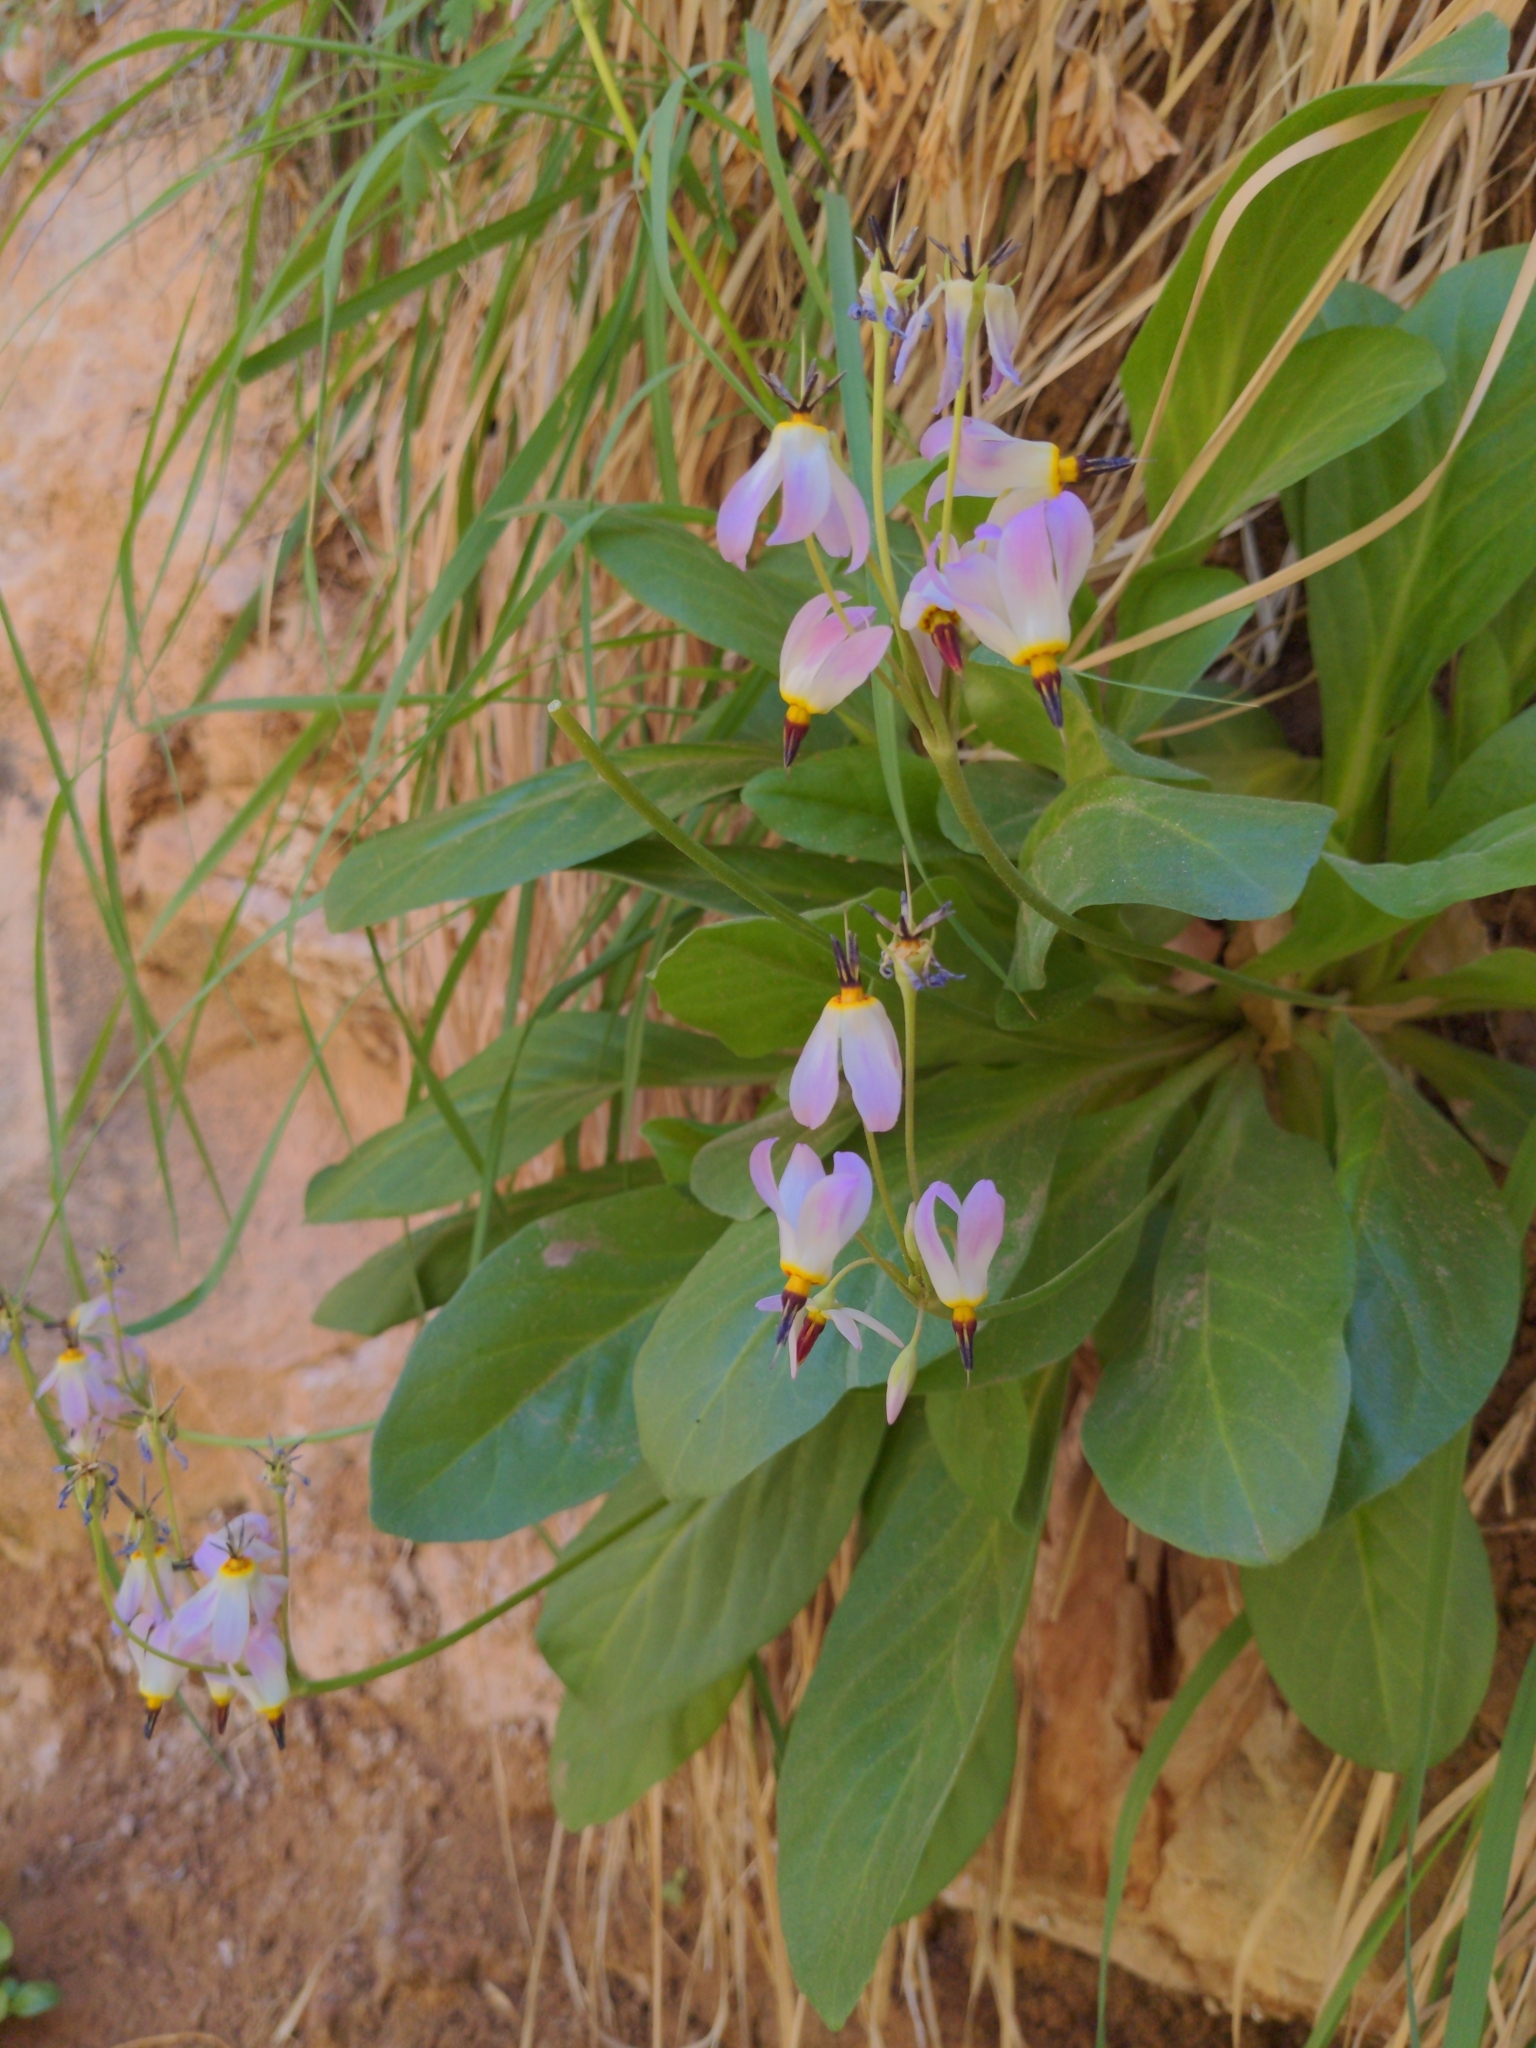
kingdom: Plantae
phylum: Tracheophyta
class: Magnoliopsida
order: Ericales
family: Primulaceae
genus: Dodecatheon
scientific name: Dodecatheon pulchellum
